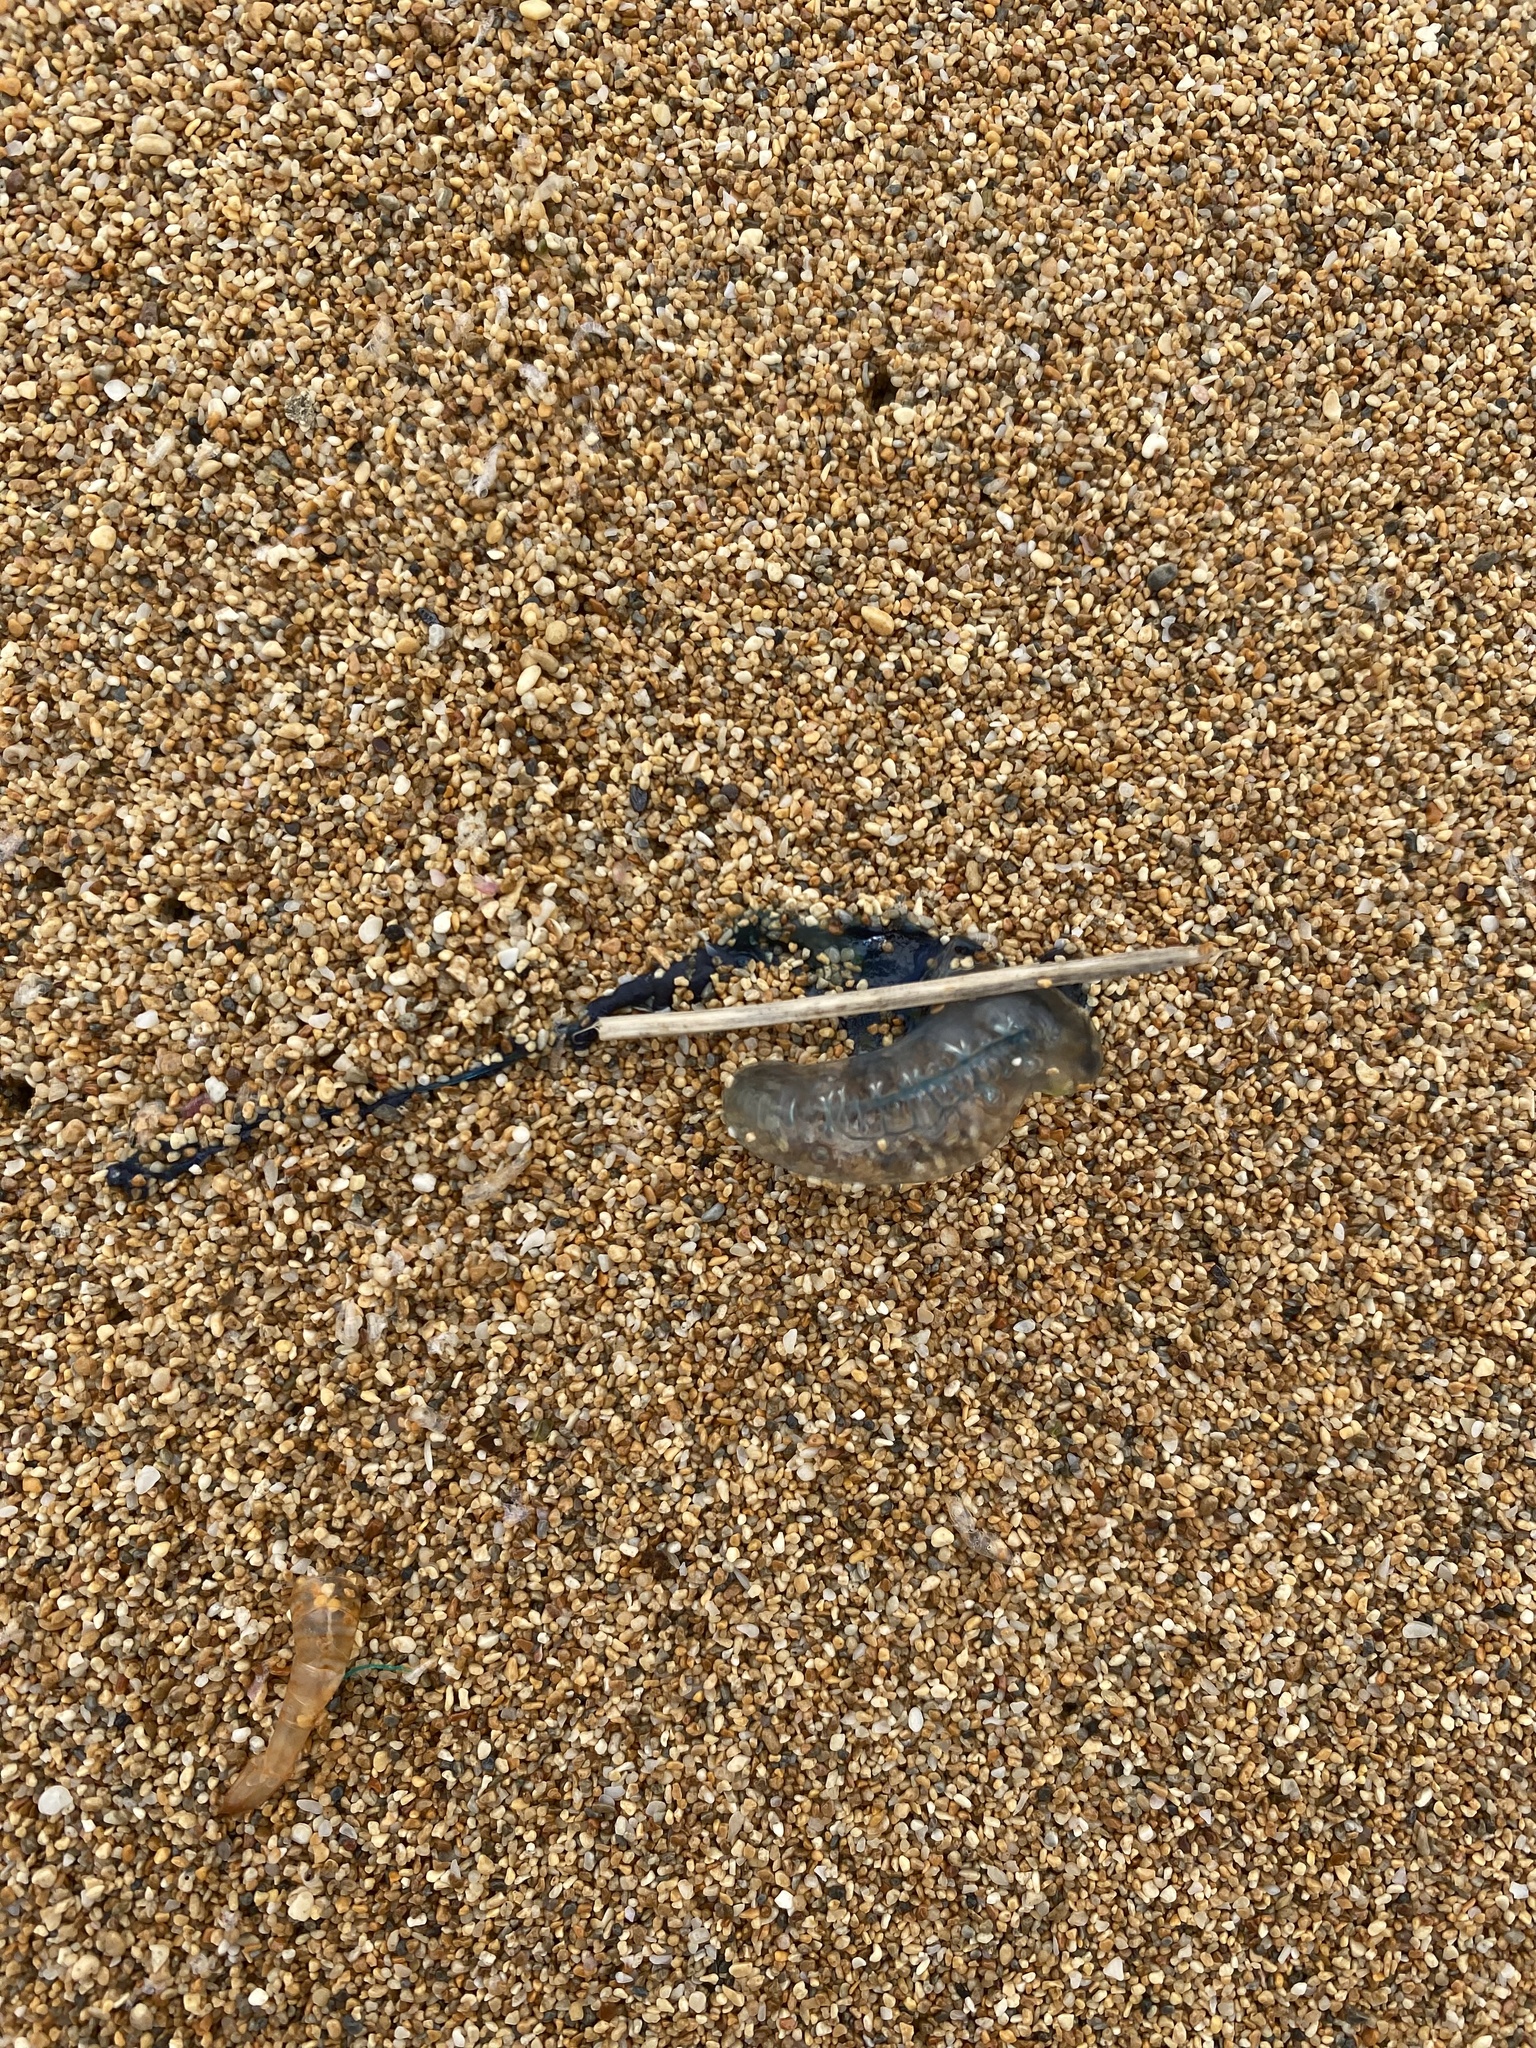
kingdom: Animalia
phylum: Cnidaria
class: Hydrozoa
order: Siphonophorae
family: Physaliidae
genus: Physalia
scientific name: Physalia physalis
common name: Portuguese man-of-war
